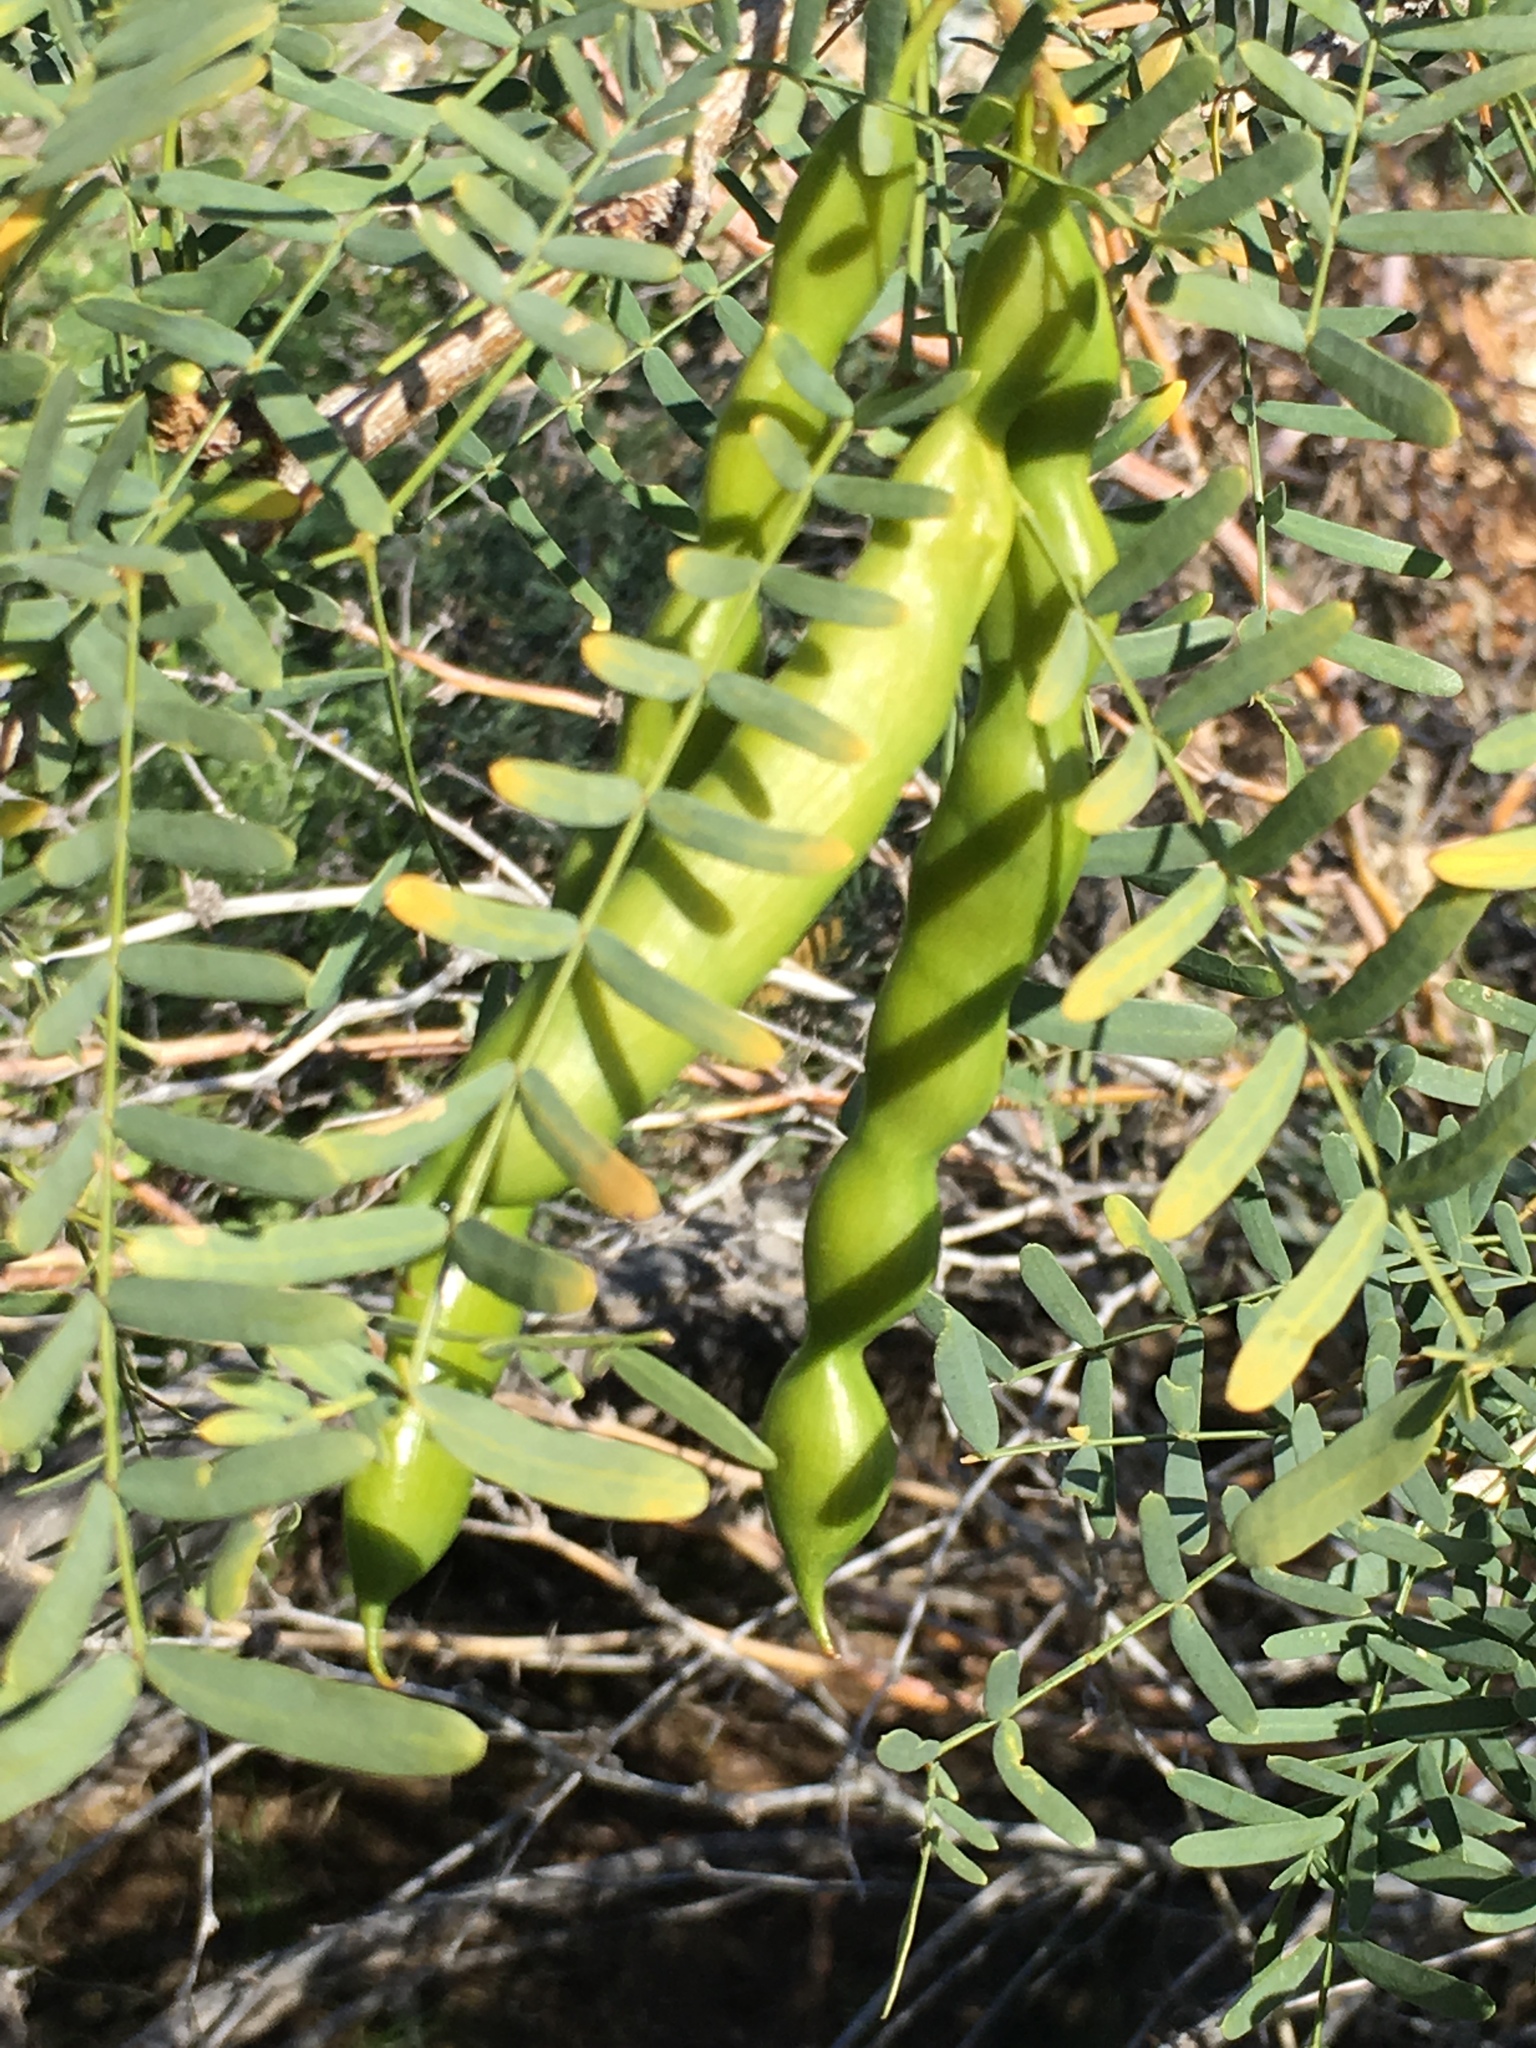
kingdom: Plantae
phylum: Tracheophyta
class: Magnoliopsida
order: Fabales
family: Fabaceae
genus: Prosopis
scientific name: Prosopis pubescens
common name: Screw-bean
